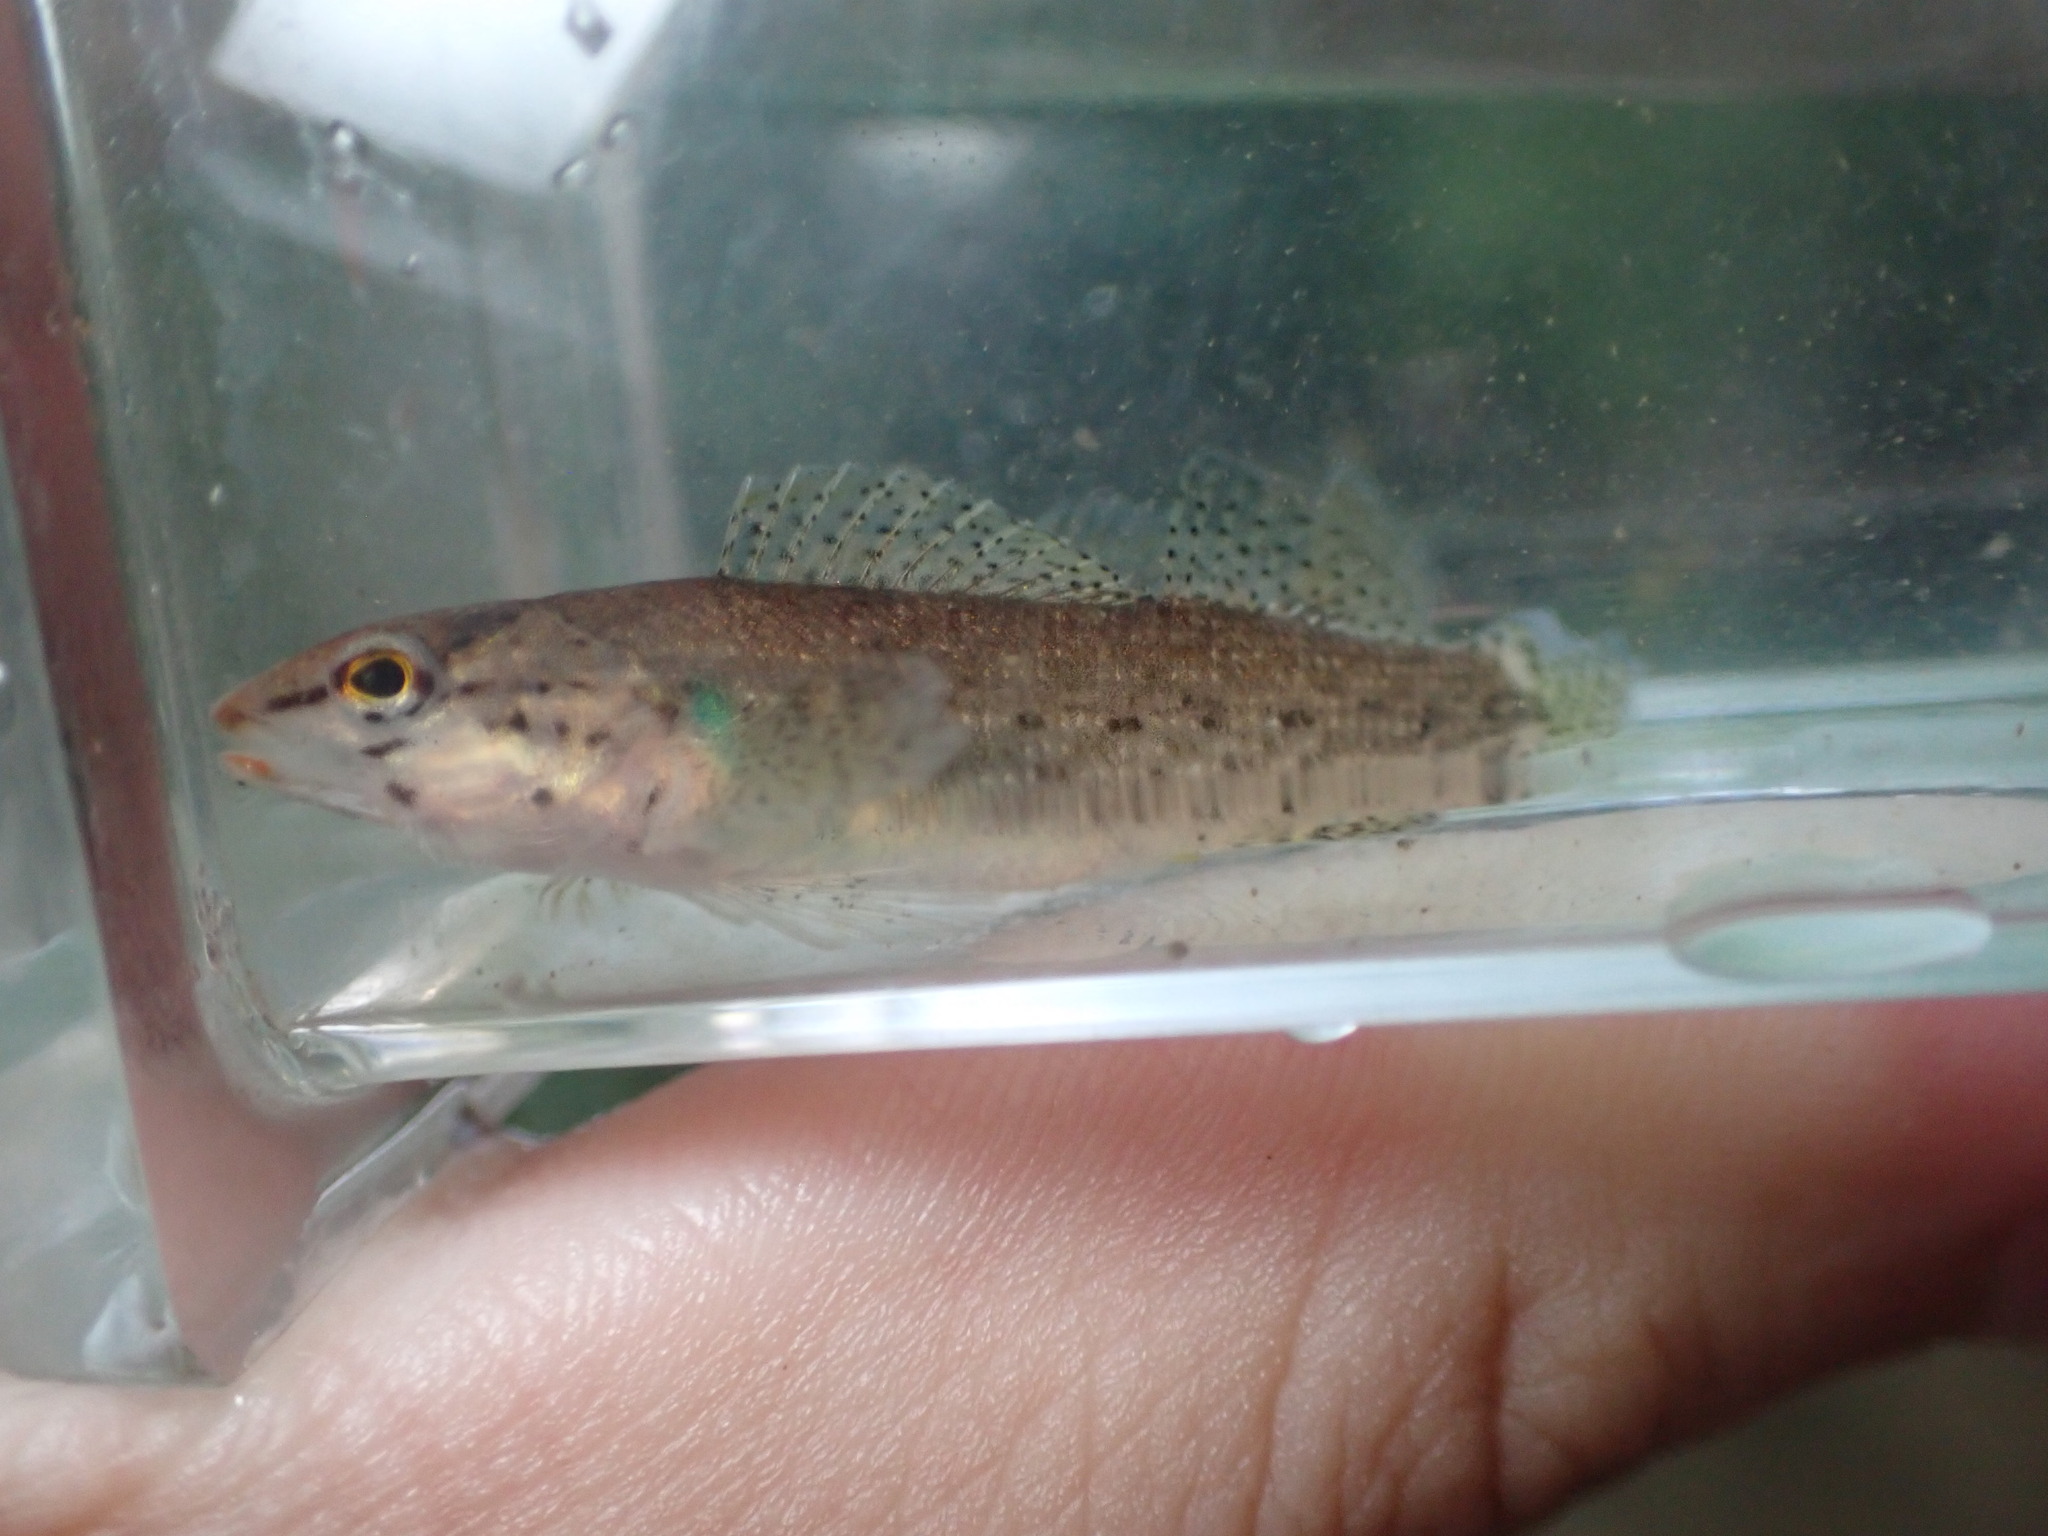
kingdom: Animalia
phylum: Chordata
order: Perciformes
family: Percidae
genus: Etheostoma
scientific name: Etheostoma rufilineatum
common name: Redline darter
